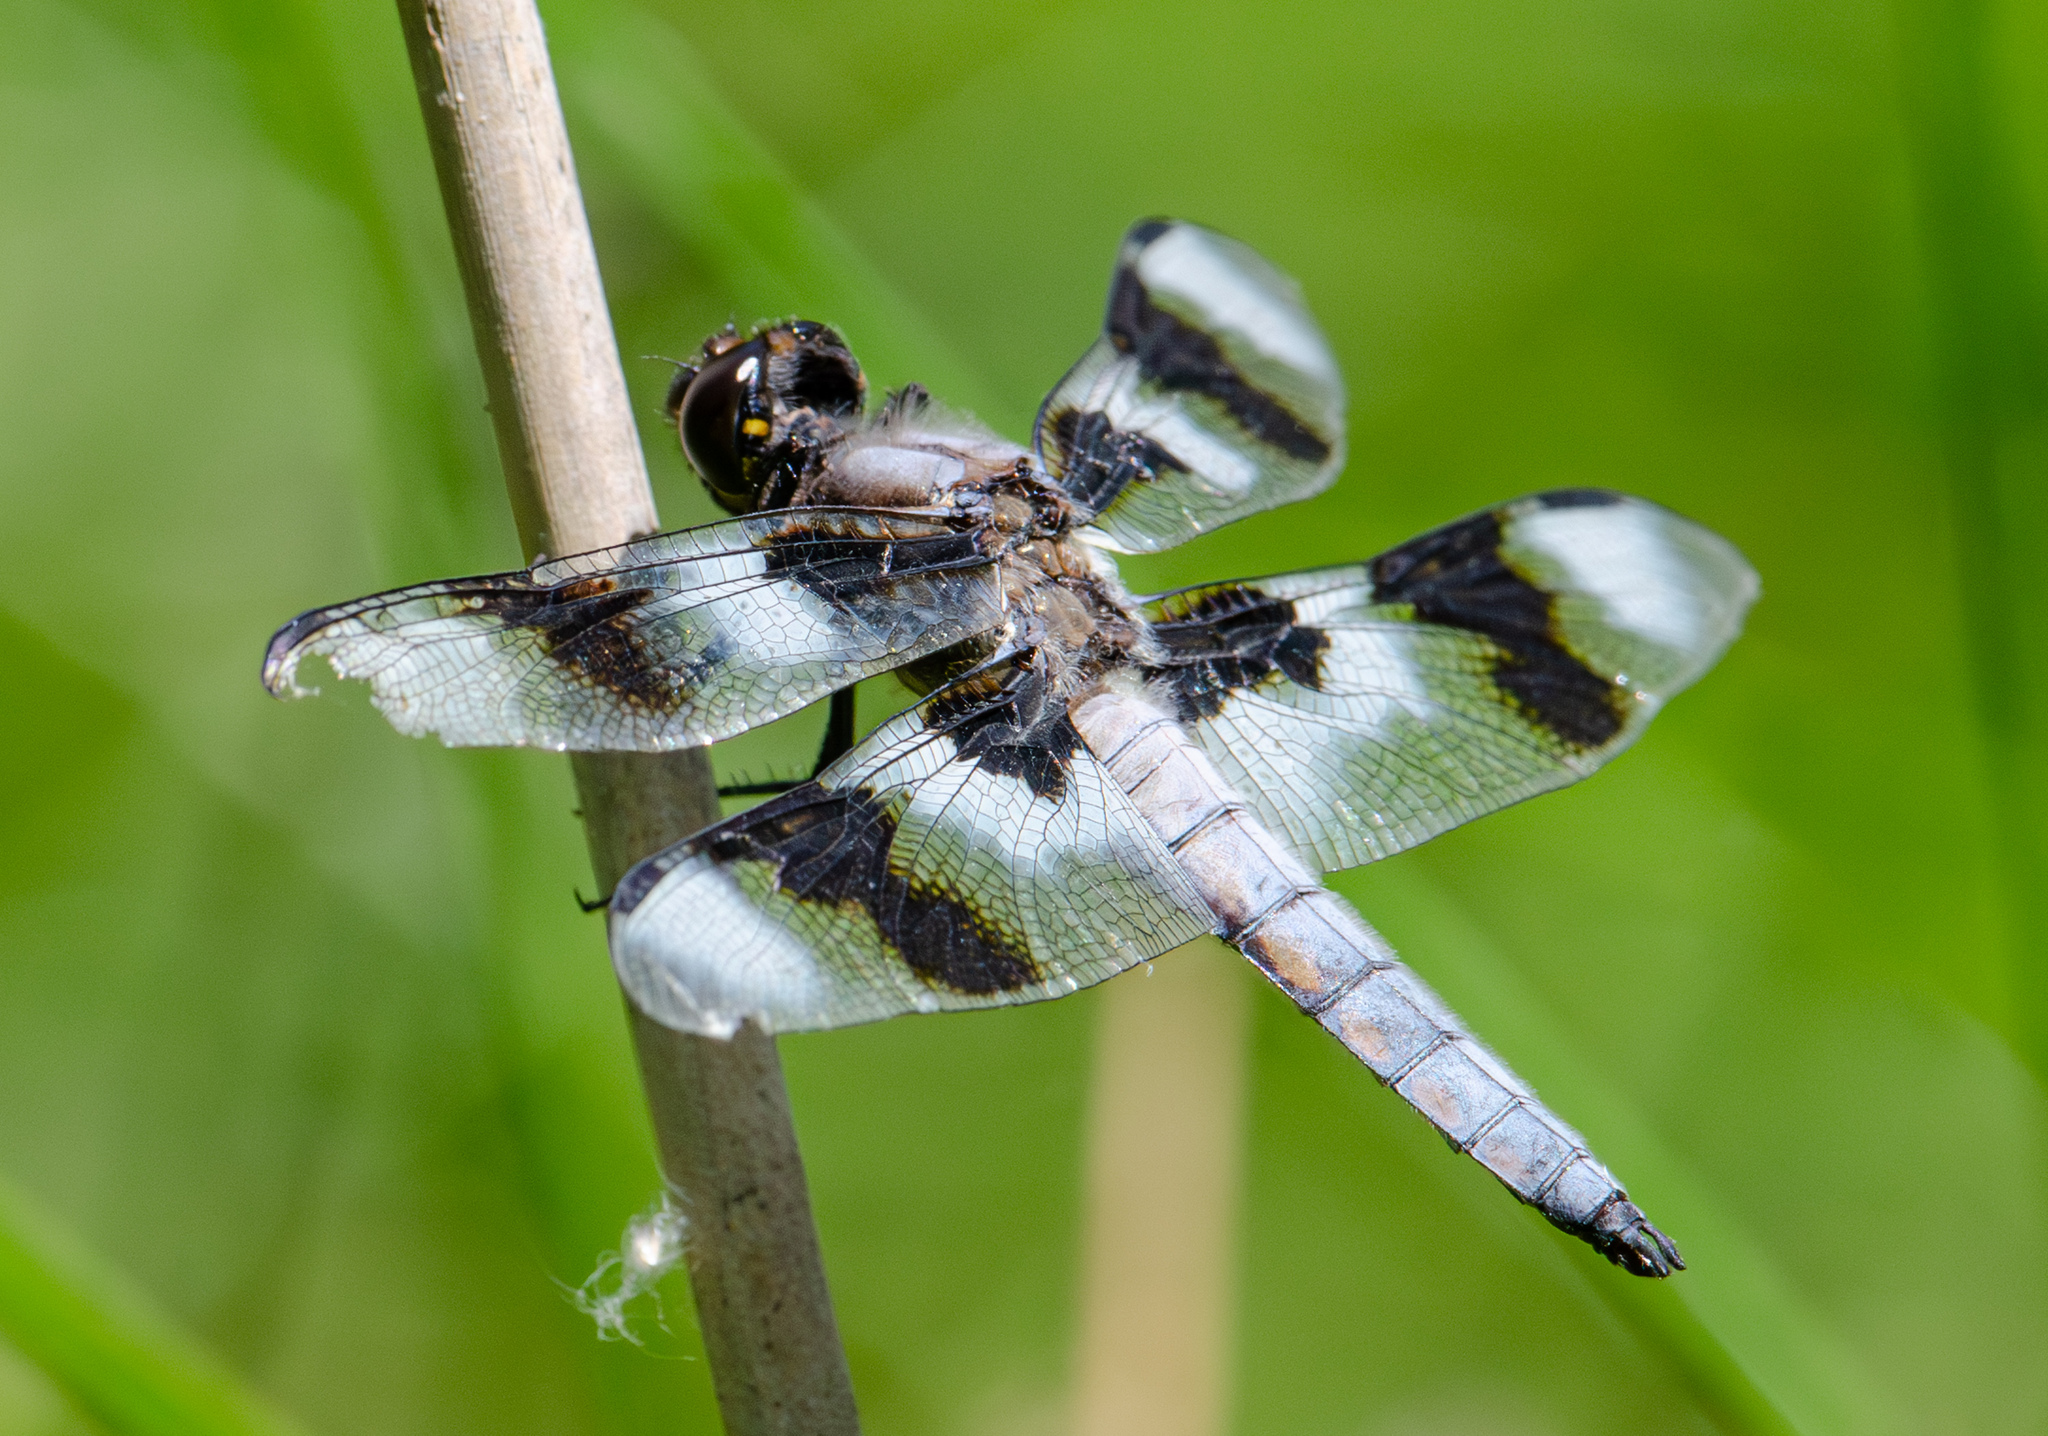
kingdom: Animalia
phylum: Arthropoda
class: Insecta
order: Odonata
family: Libellulidae
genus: Libellula
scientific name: Libellula forensis
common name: Eight-spotted skimmer
